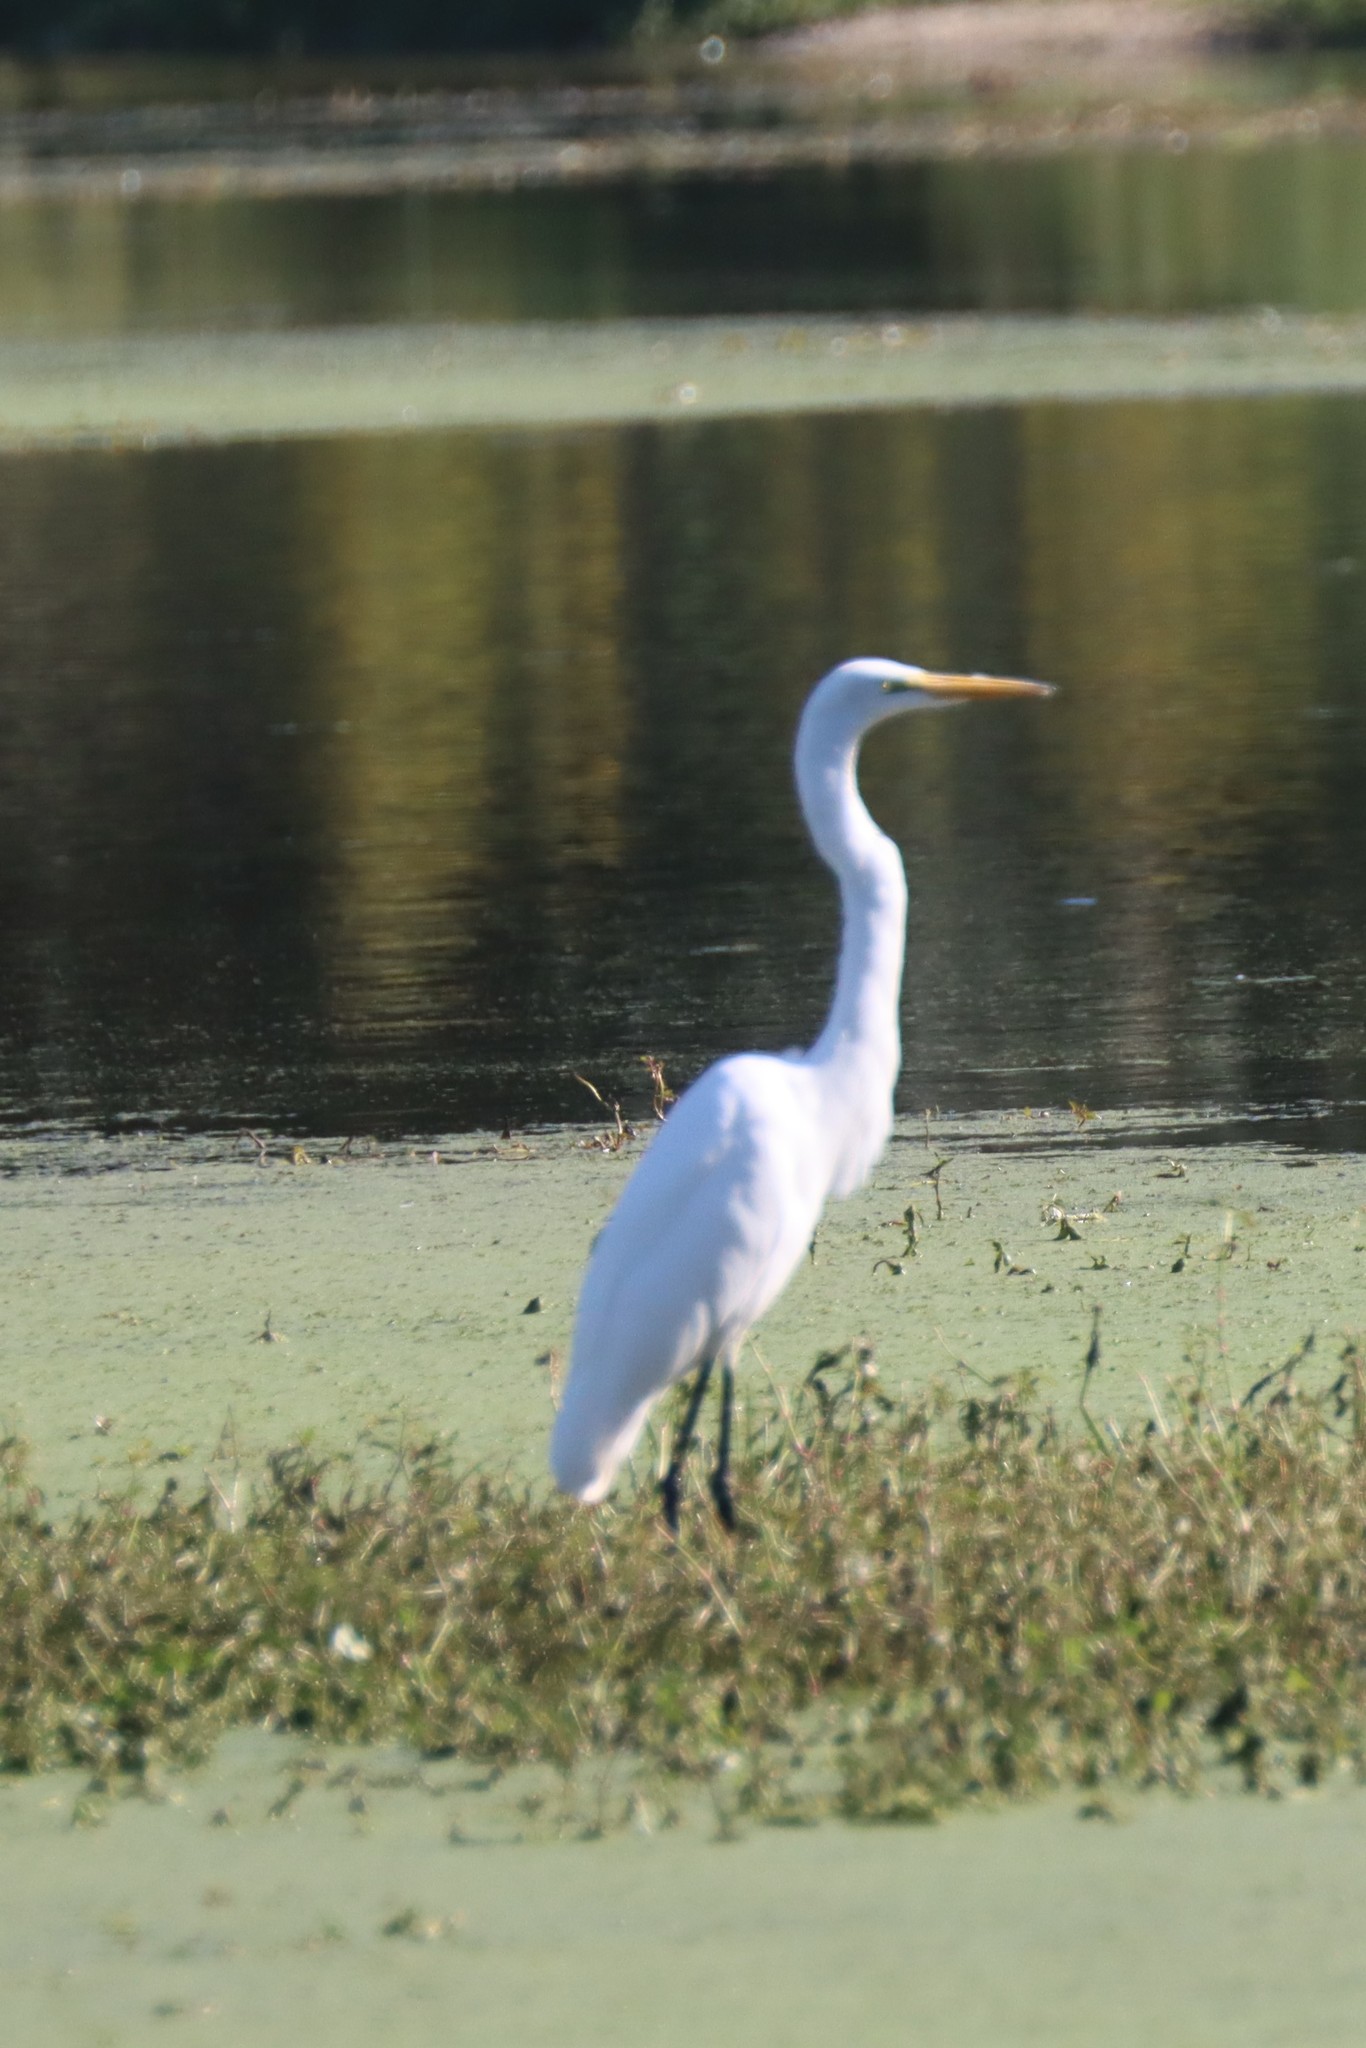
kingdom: Animalia
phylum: Chordata
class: Aves
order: Pelecaniformes
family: Ardeidae
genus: Ardea
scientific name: Ardea alba
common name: Great egret
